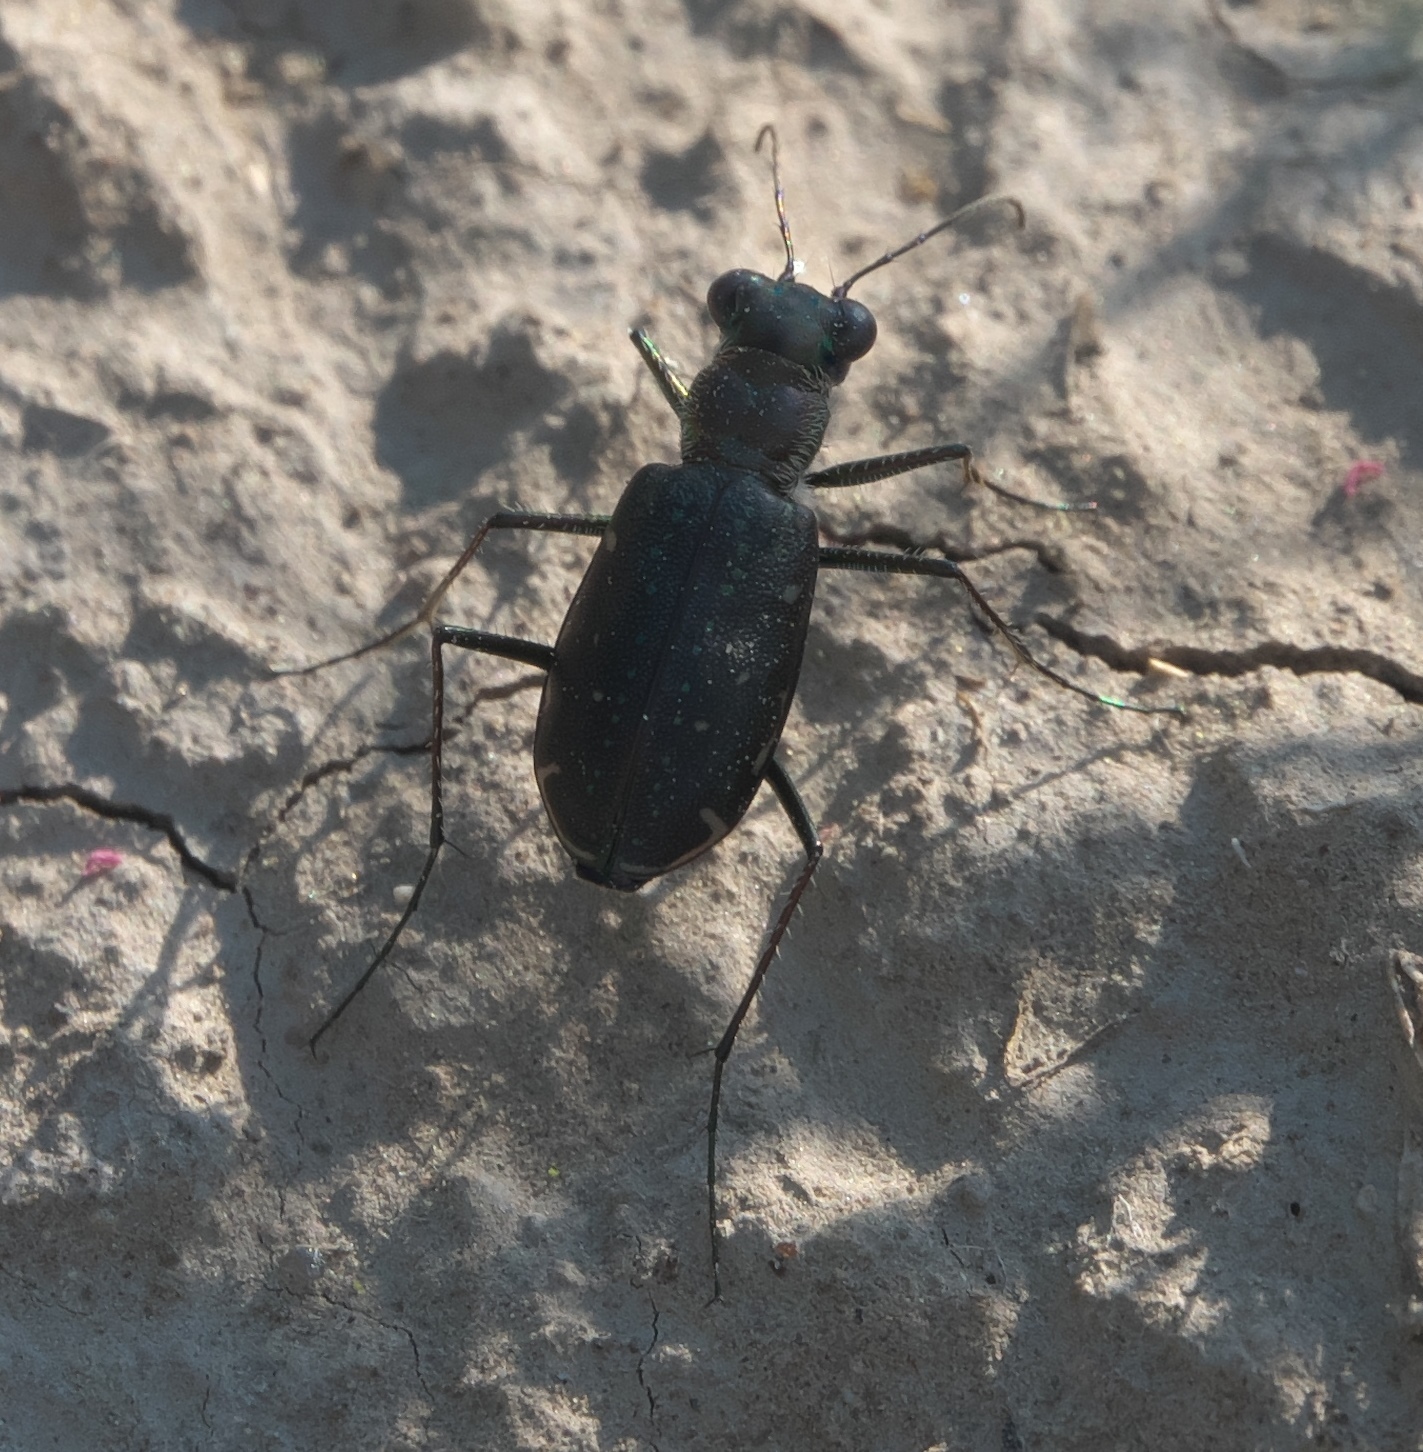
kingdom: Animalia
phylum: Arthropoda
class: Insecta
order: Coleoptera
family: Carabidae
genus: Cicindela
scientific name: Cicindela punctulata
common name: Punctured tiger beetle
